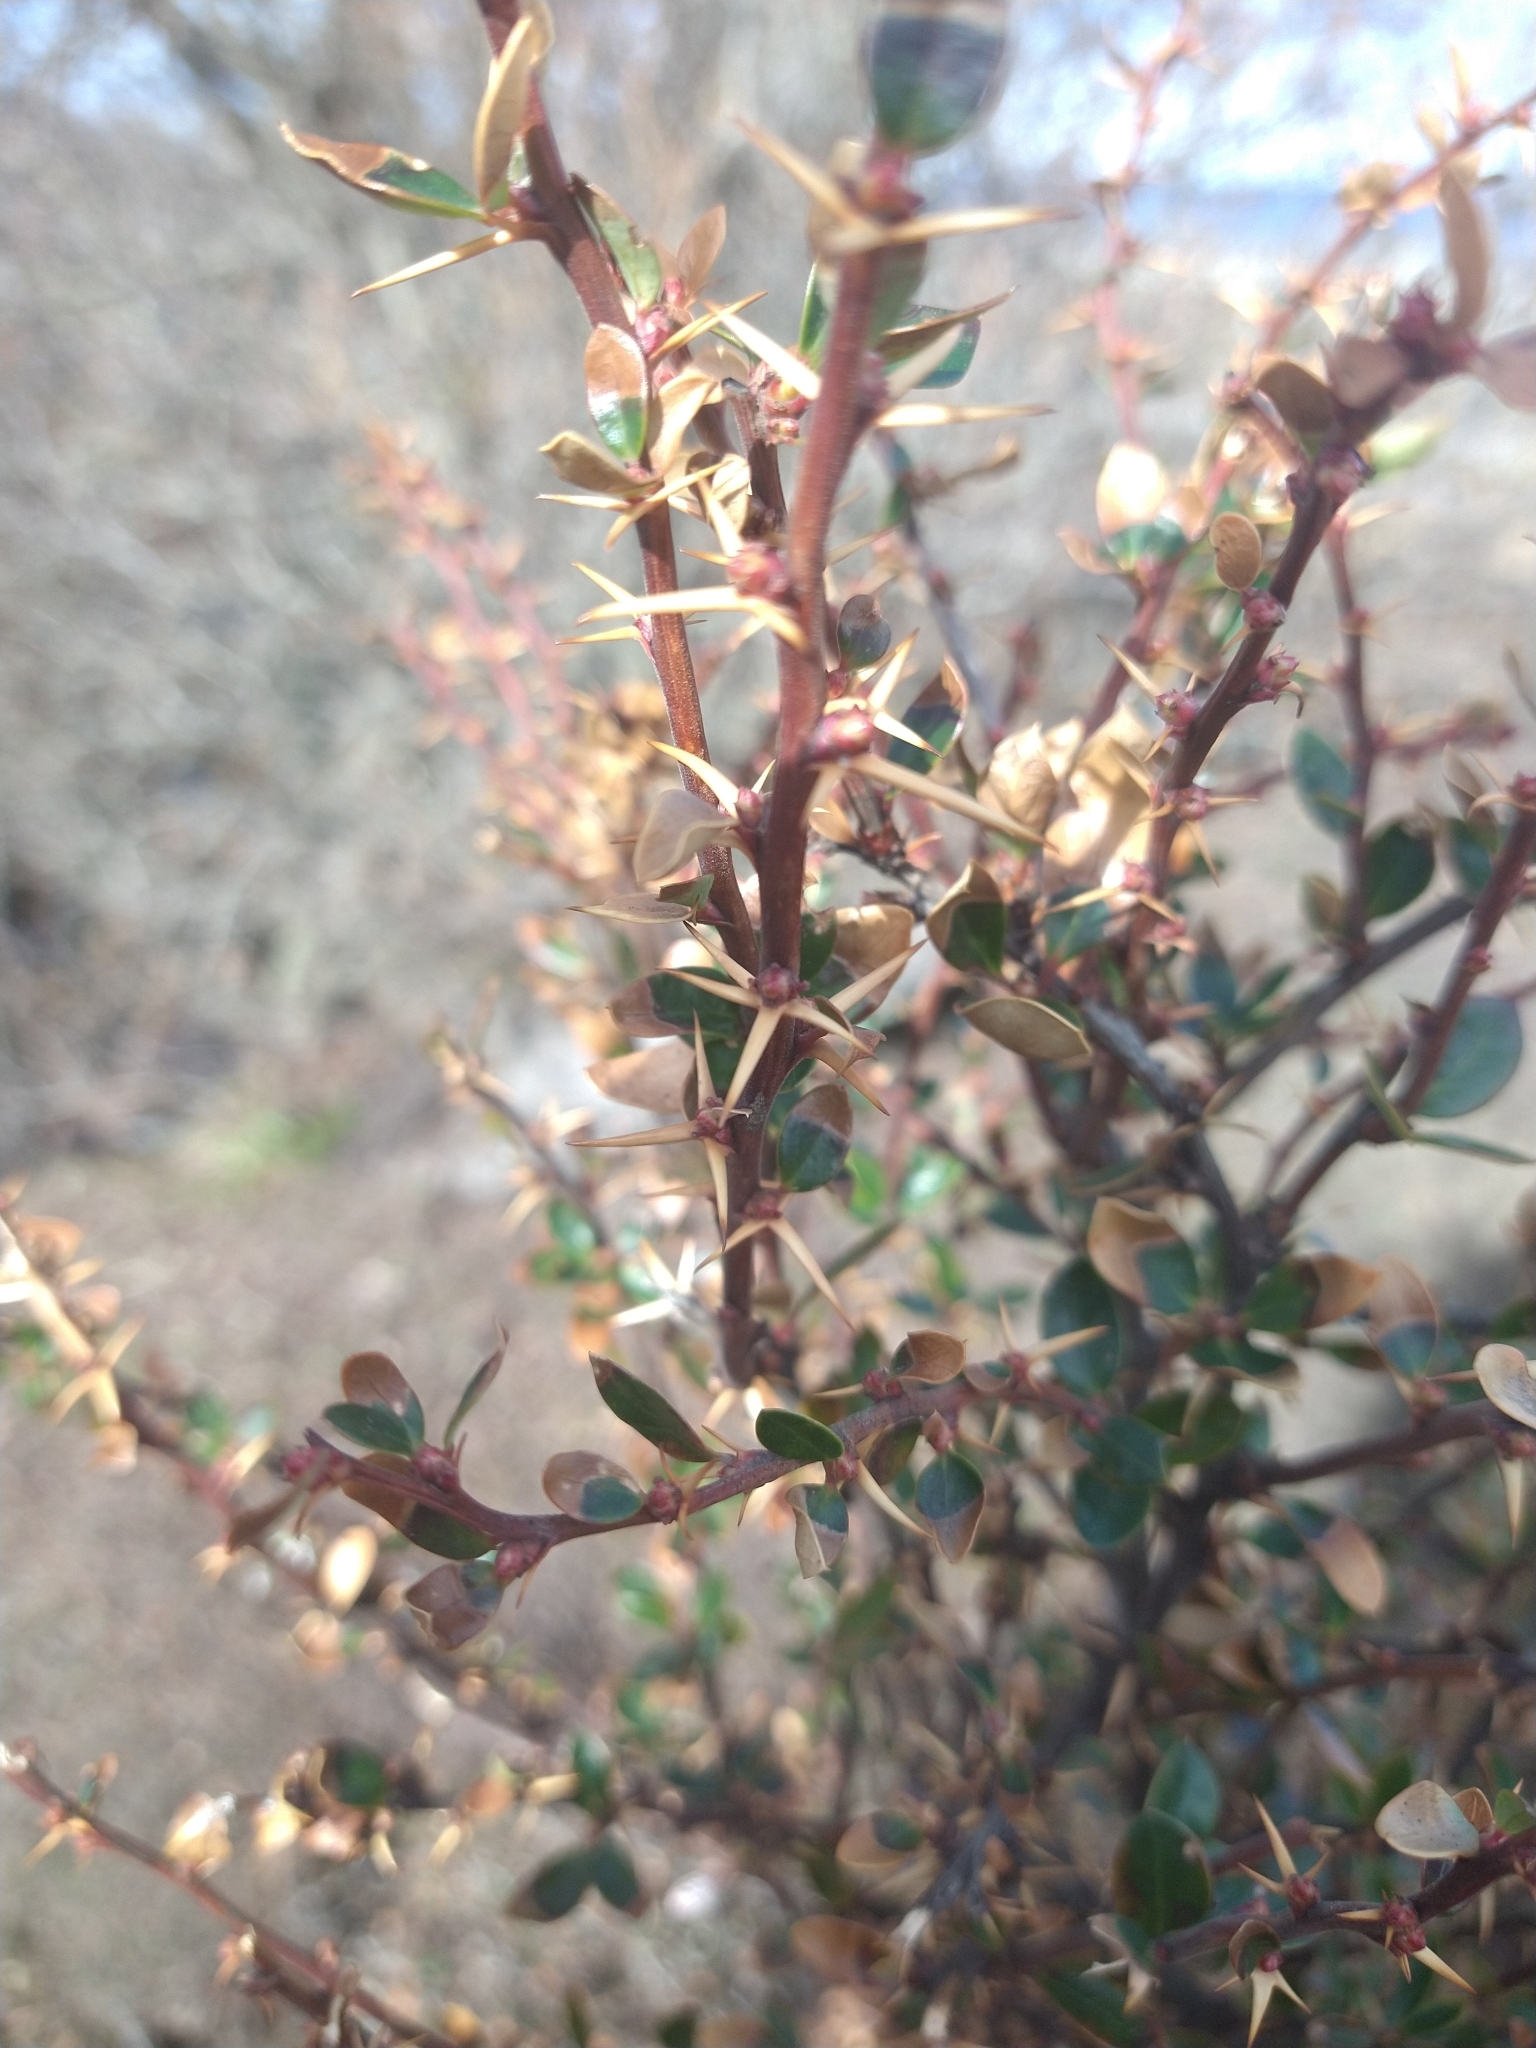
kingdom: Plantae
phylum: Tracheophyta
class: Magnoliopsida
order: Ranunculales
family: Berberidaceae
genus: Berberis
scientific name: Berberis microphylla
